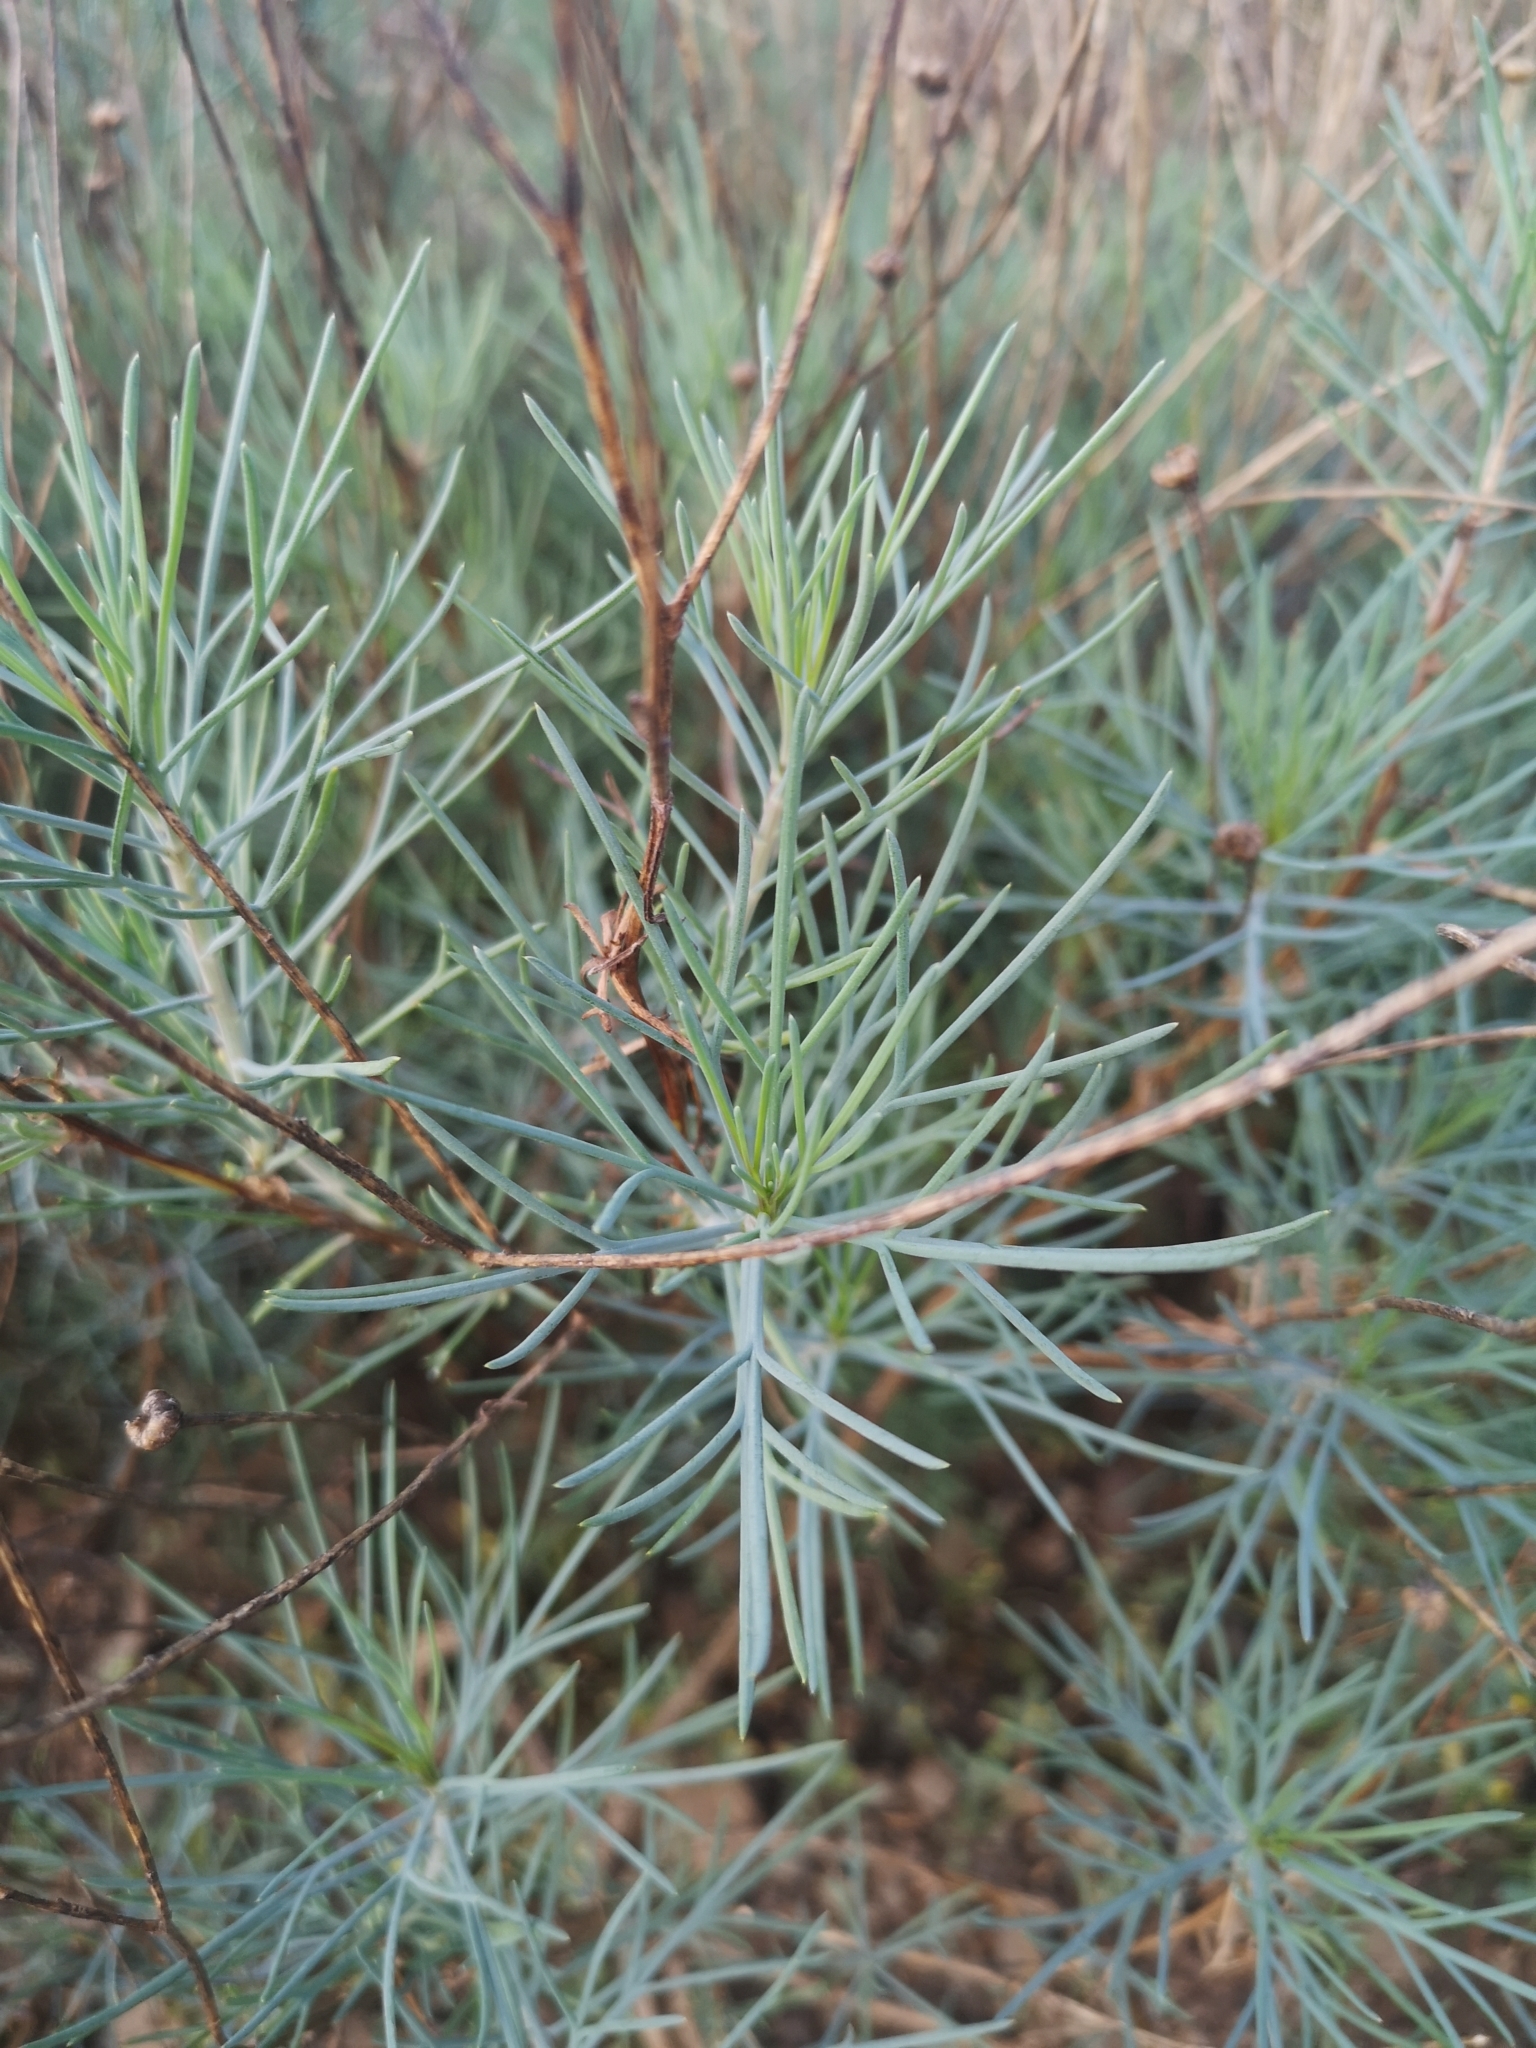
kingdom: Plantae
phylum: Tracheophyta
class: Magnoliopsida
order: Asterales
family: Asteraceae
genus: Argyranthemum
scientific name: Argyranthemum gracile
